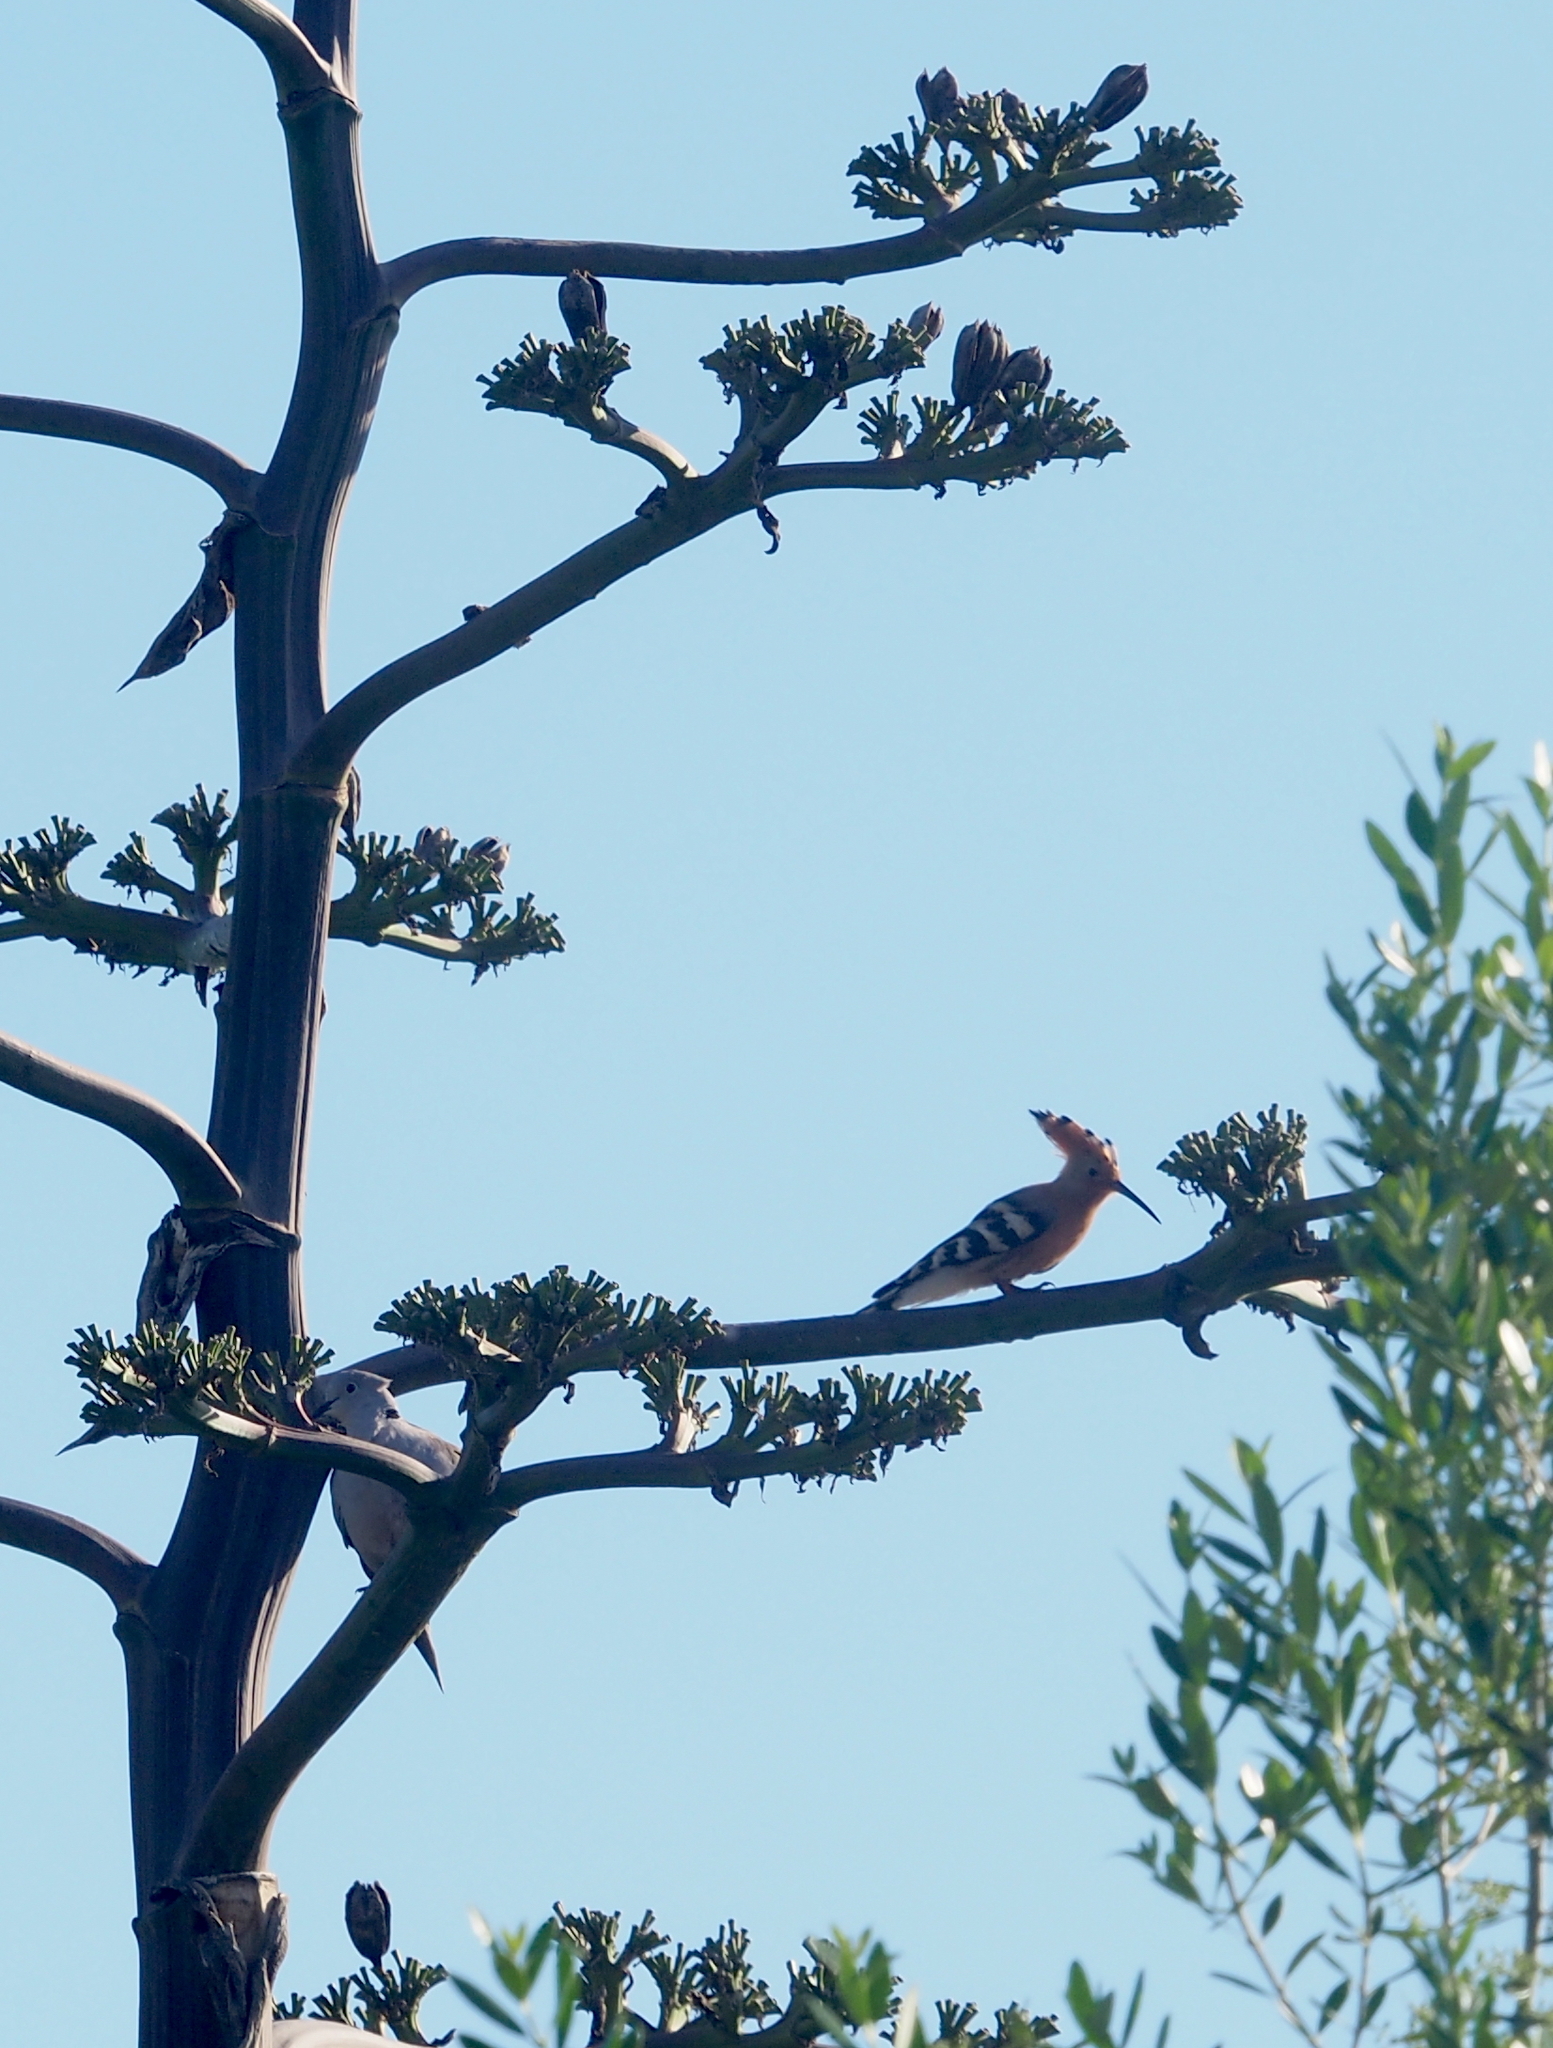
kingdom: Animalia
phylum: Chordata
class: Aves
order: Bucerotiformes
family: Upupidae
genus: Upupa
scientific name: Upupa epops
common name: Eurasian hoopoe
